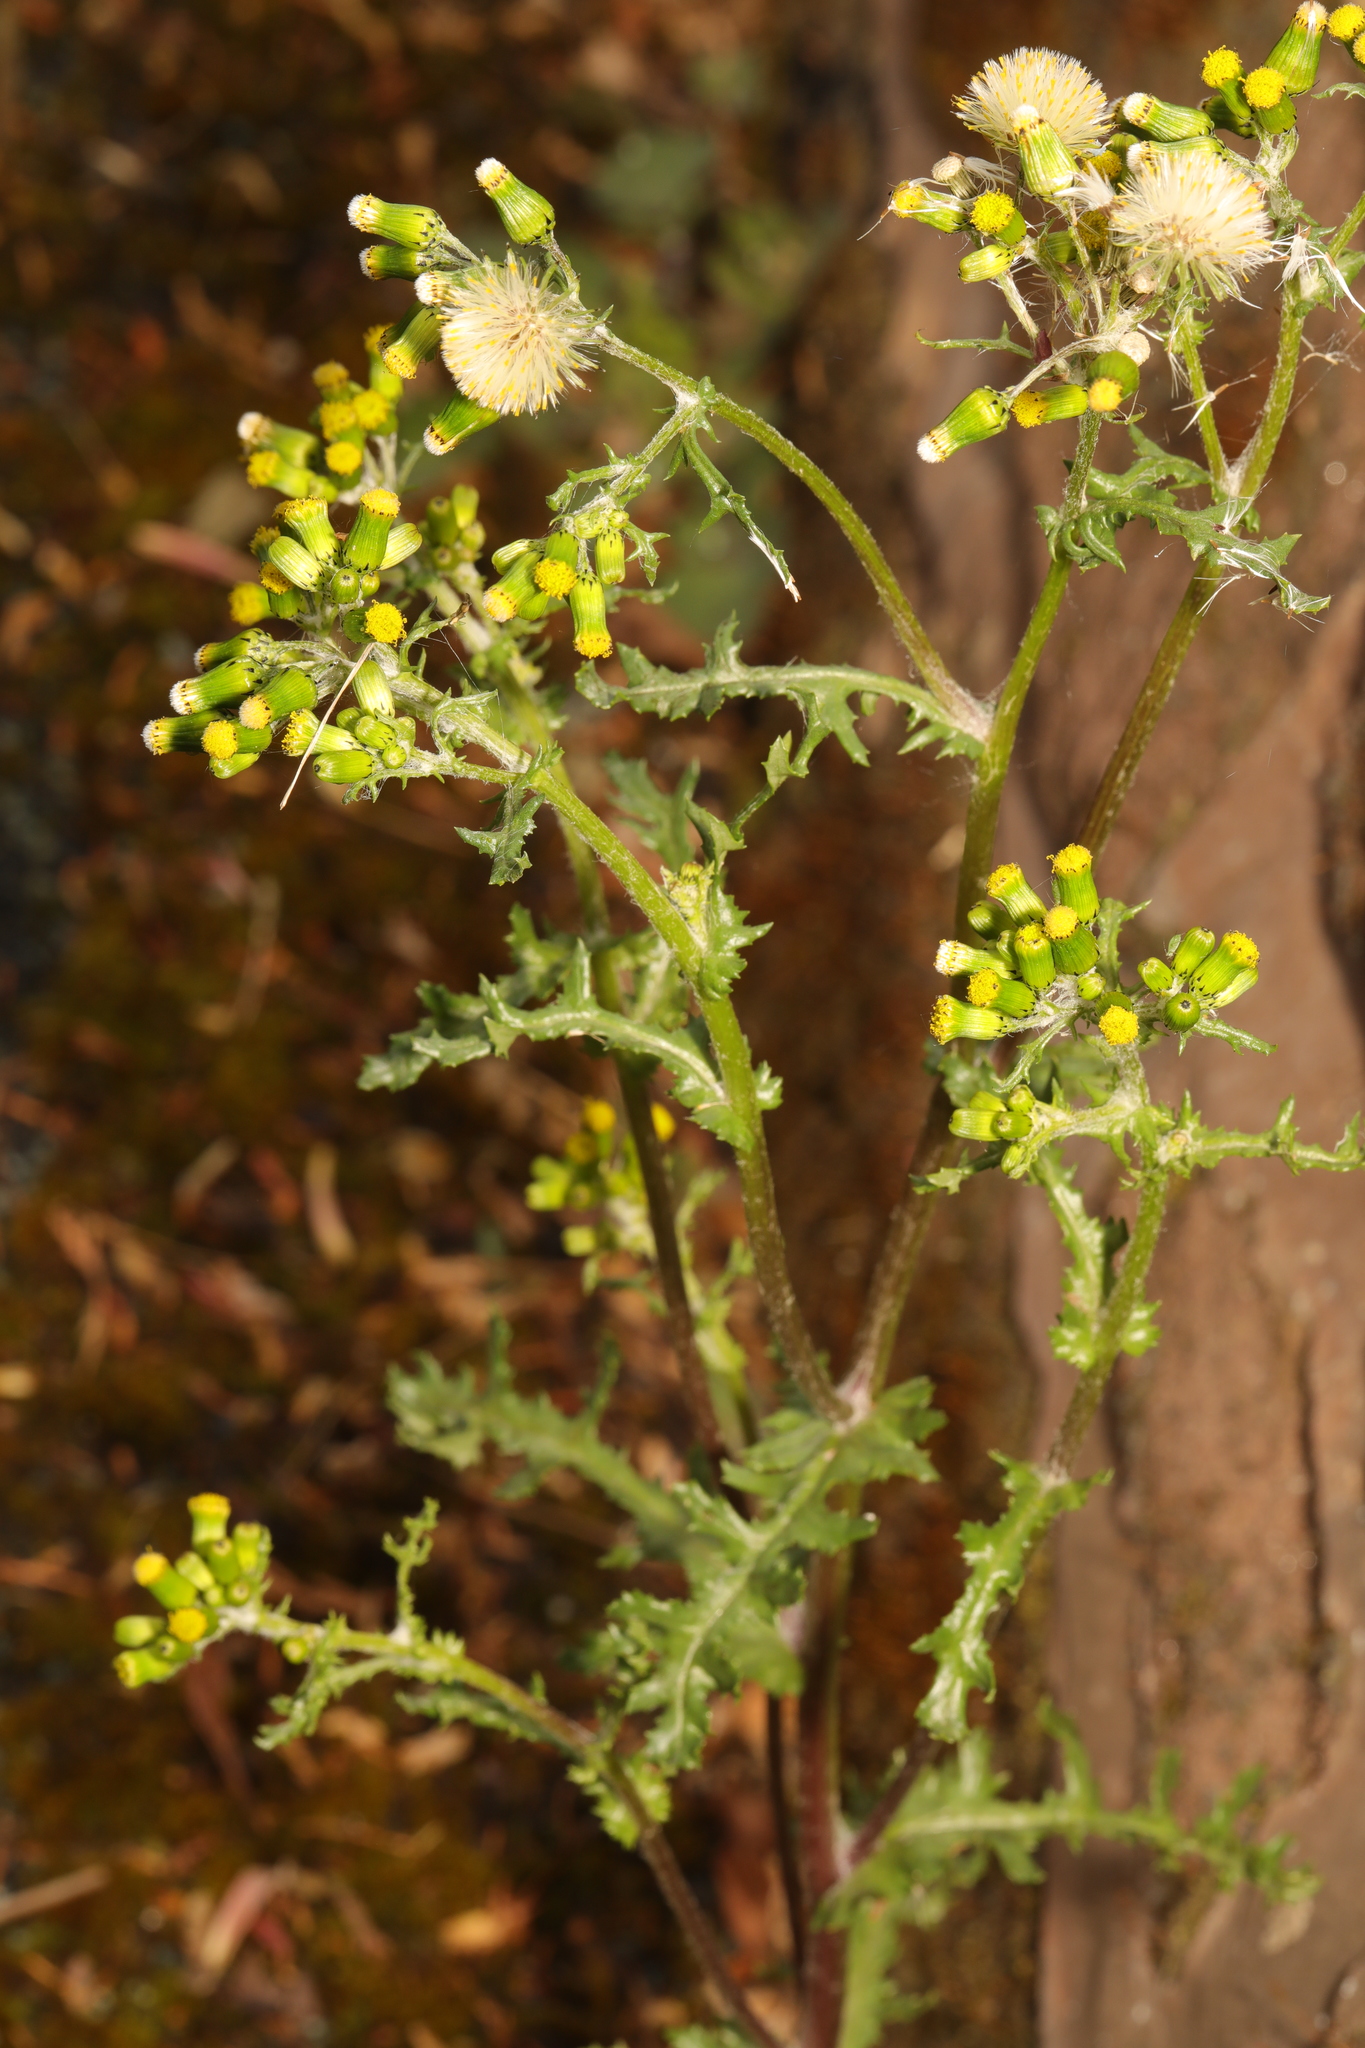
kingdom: Plantae
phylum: Tracheophyta
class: Magnoliopsida
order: Asterales
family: Asteraceae
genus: Senecio
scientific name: Senecio vulgaris
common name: Old-man-in-the-spring
